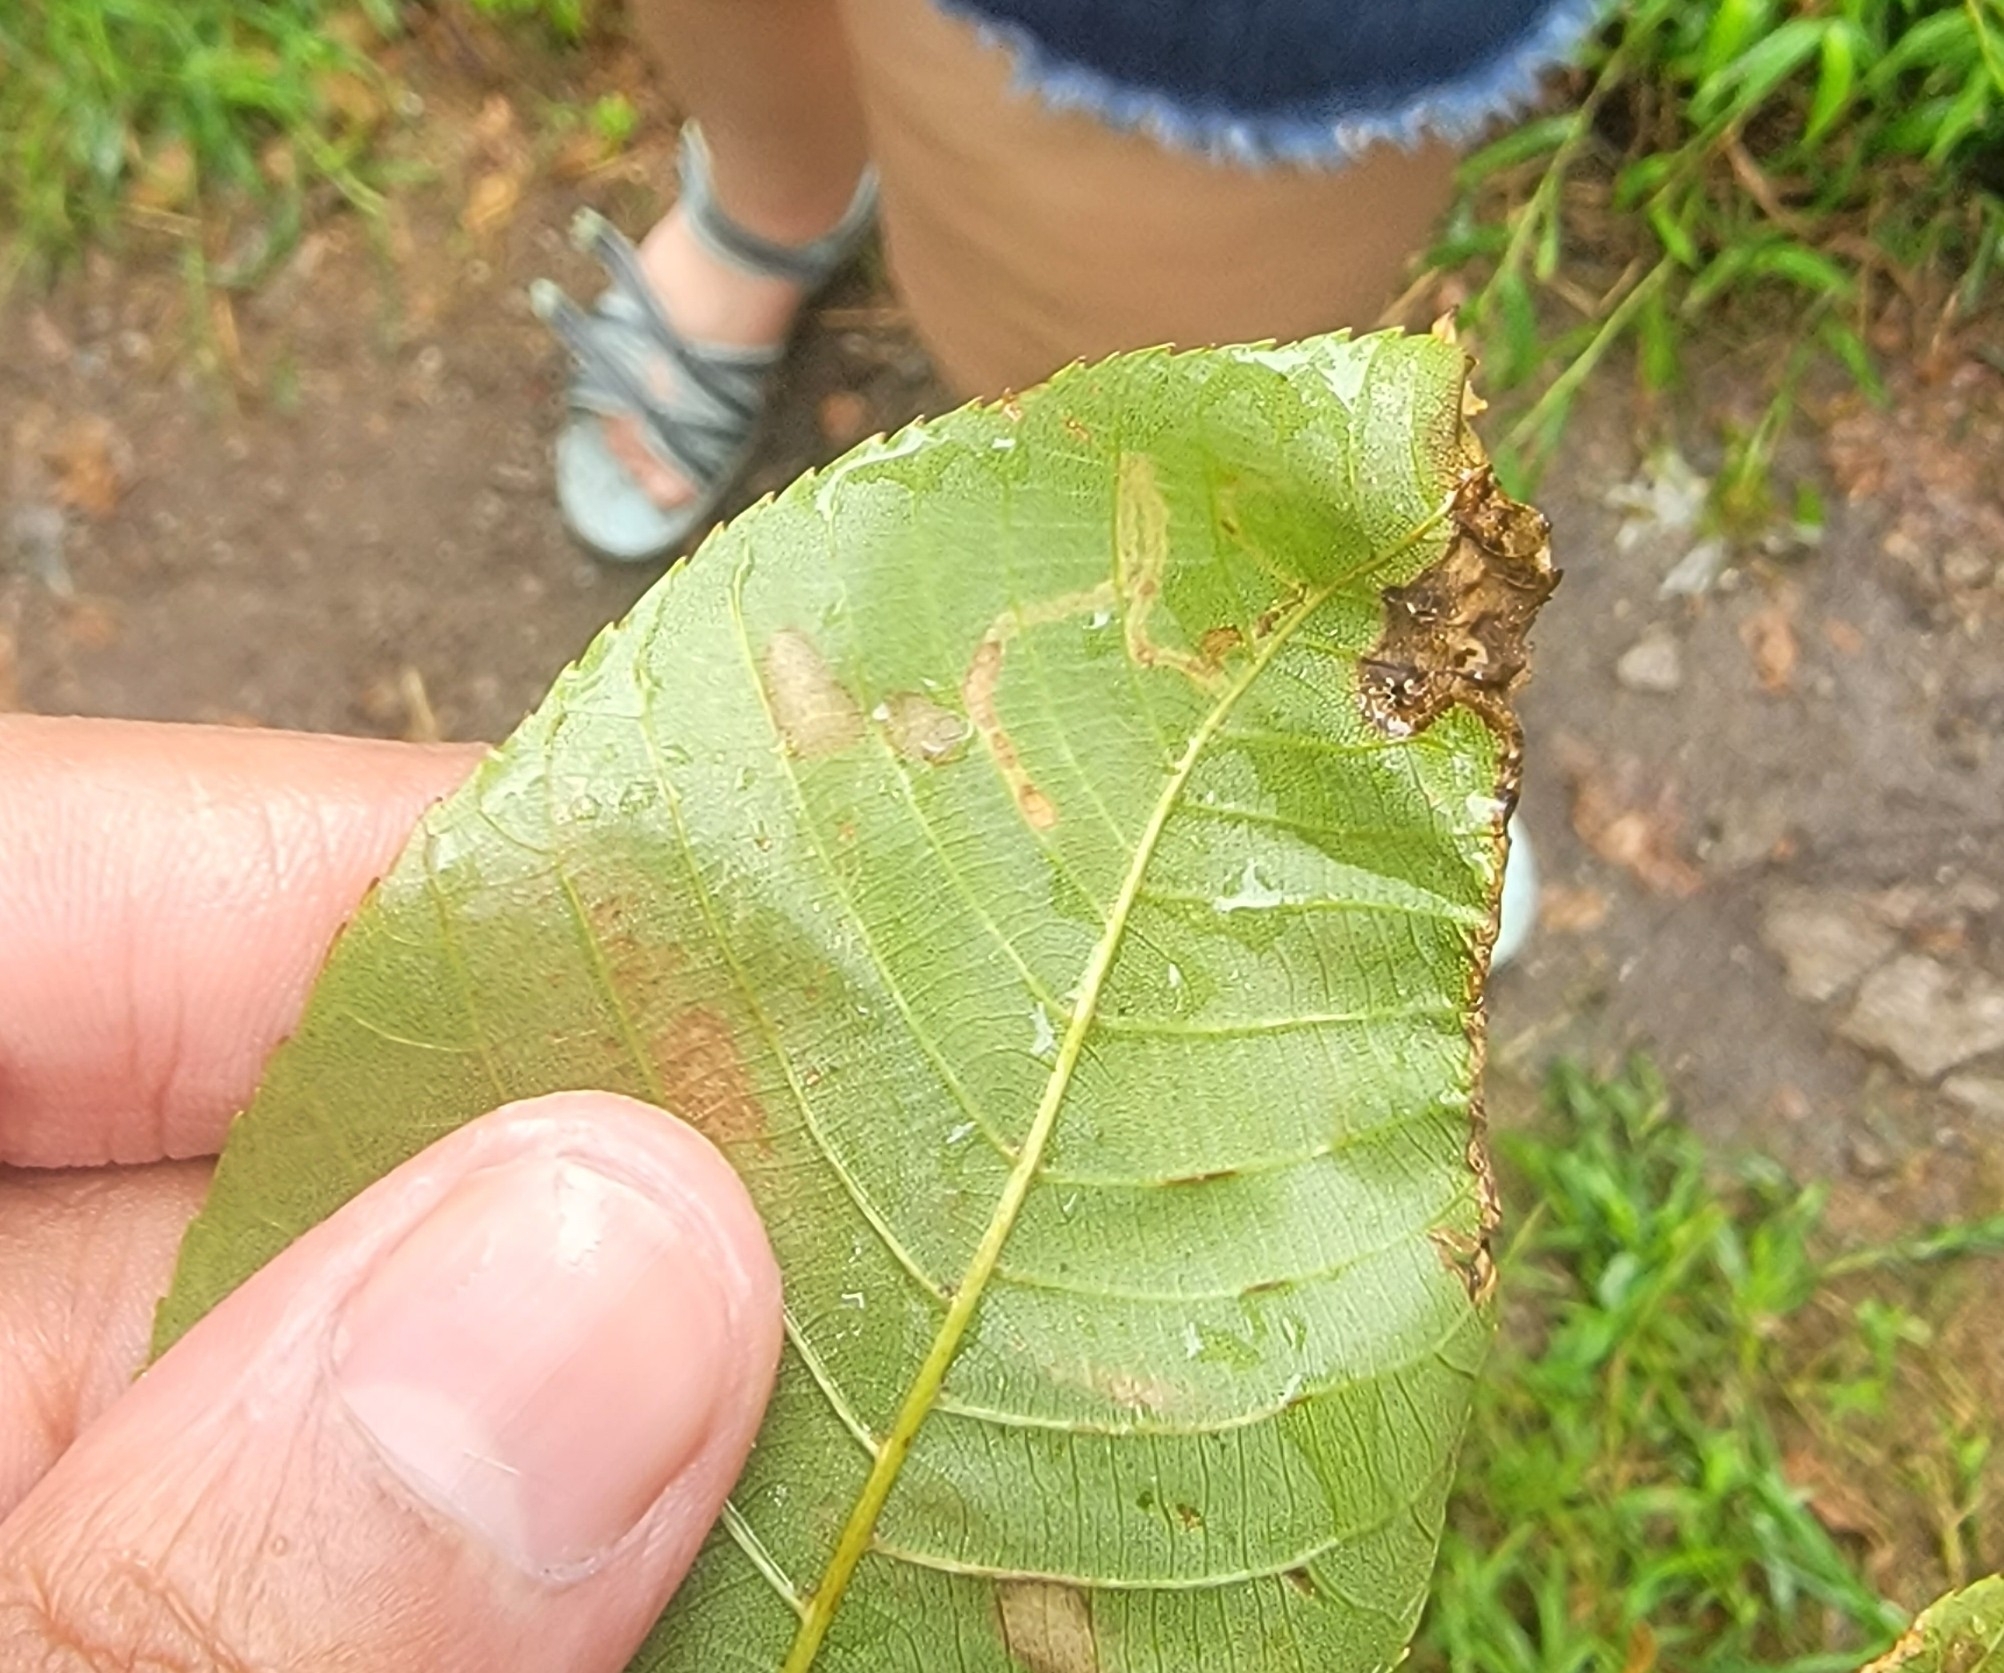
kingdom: Animalia
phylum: Arthropoda
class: Insecta
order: Lepidoptera
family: Heliozelidae
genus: Coptodisca
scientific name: Coptodisca lucifluella
